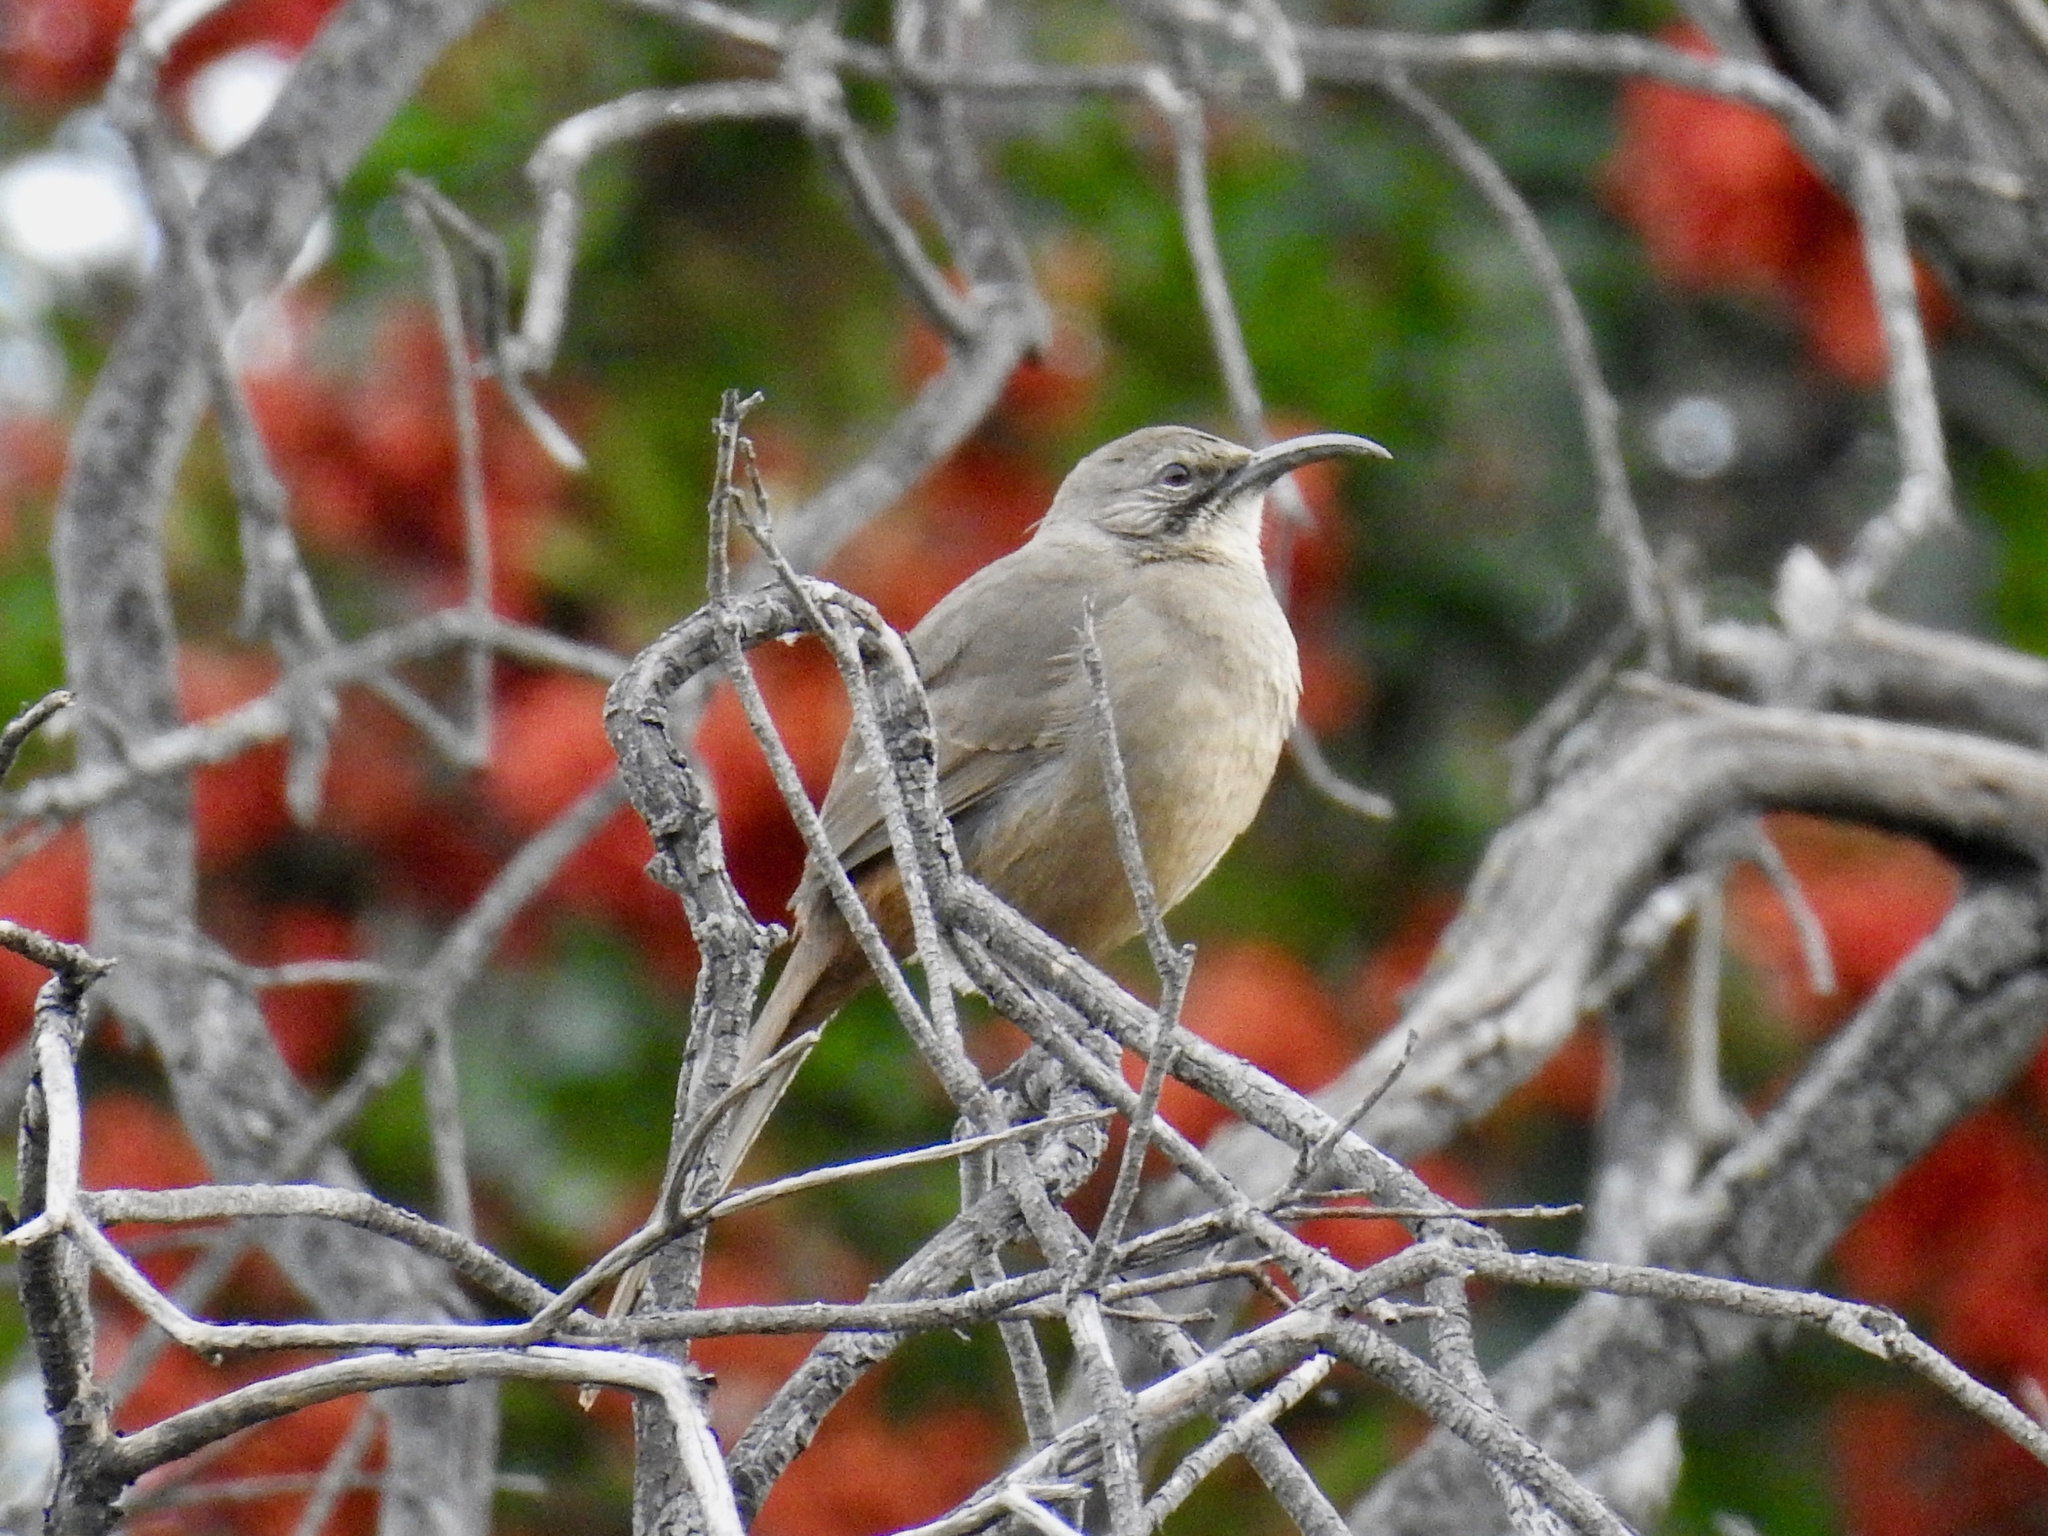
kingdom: Animalia
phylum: Chordata
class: Aves
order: Passeriformes
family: Mimidae
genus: Toxostoma
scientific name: Toxostoma redivivum
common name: California thrasher
